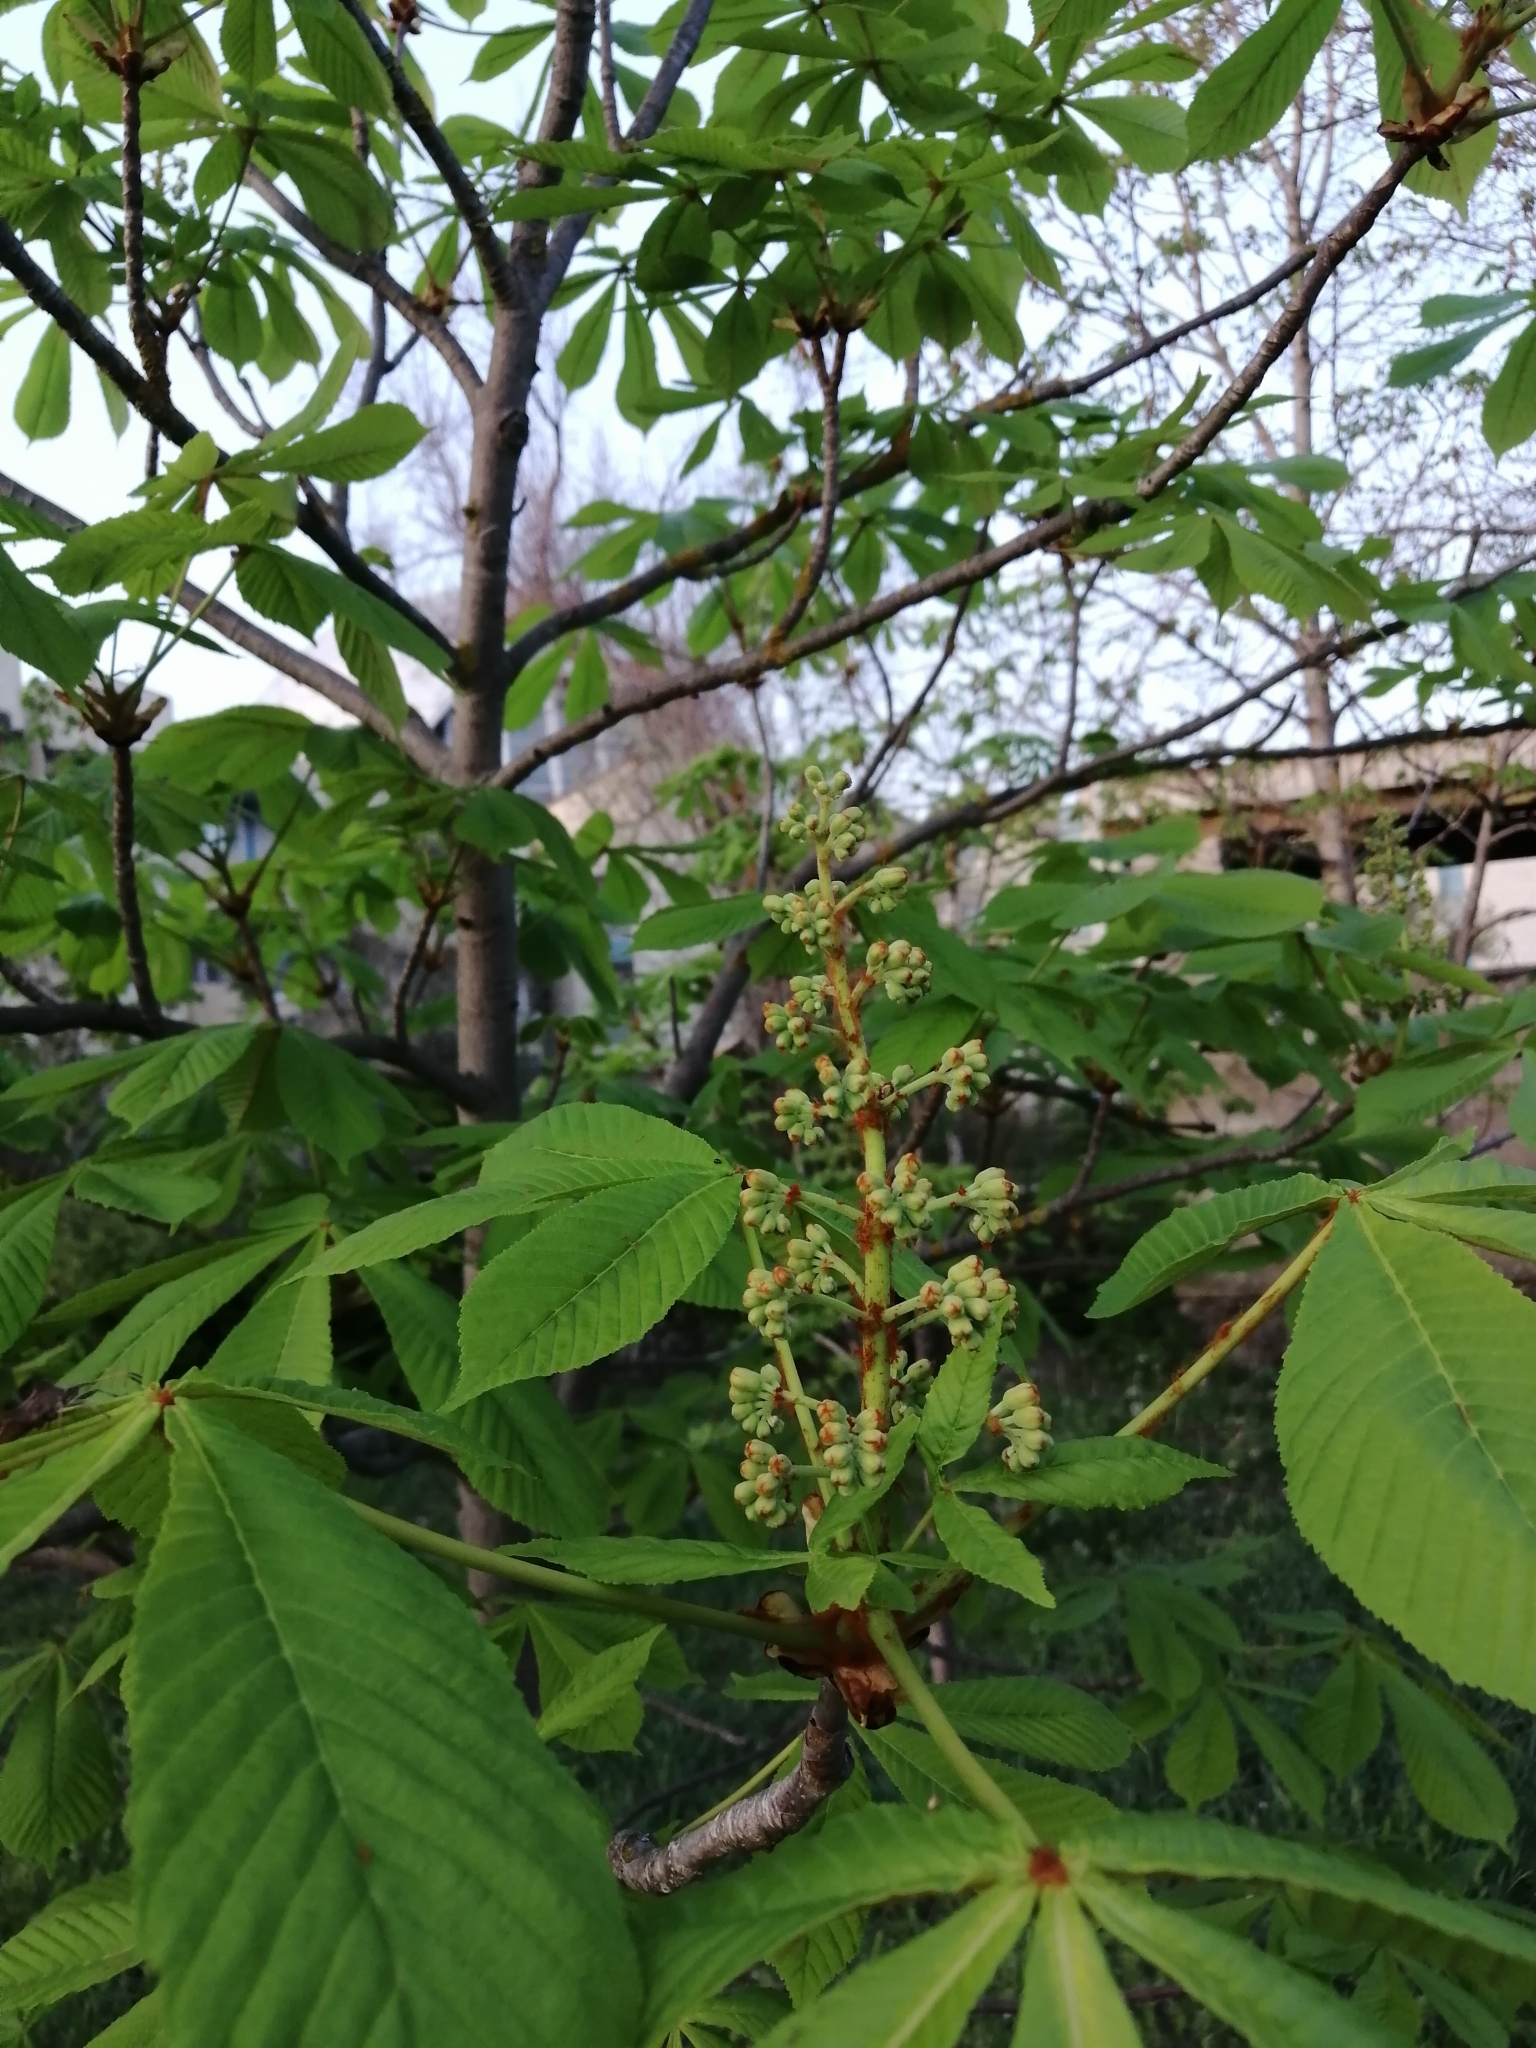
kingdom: Plantae
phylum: Tracheophyta
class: Magnoliopsida
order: Sapindales
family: Sapindaceae
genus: Aesculus
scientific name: Aesculus
